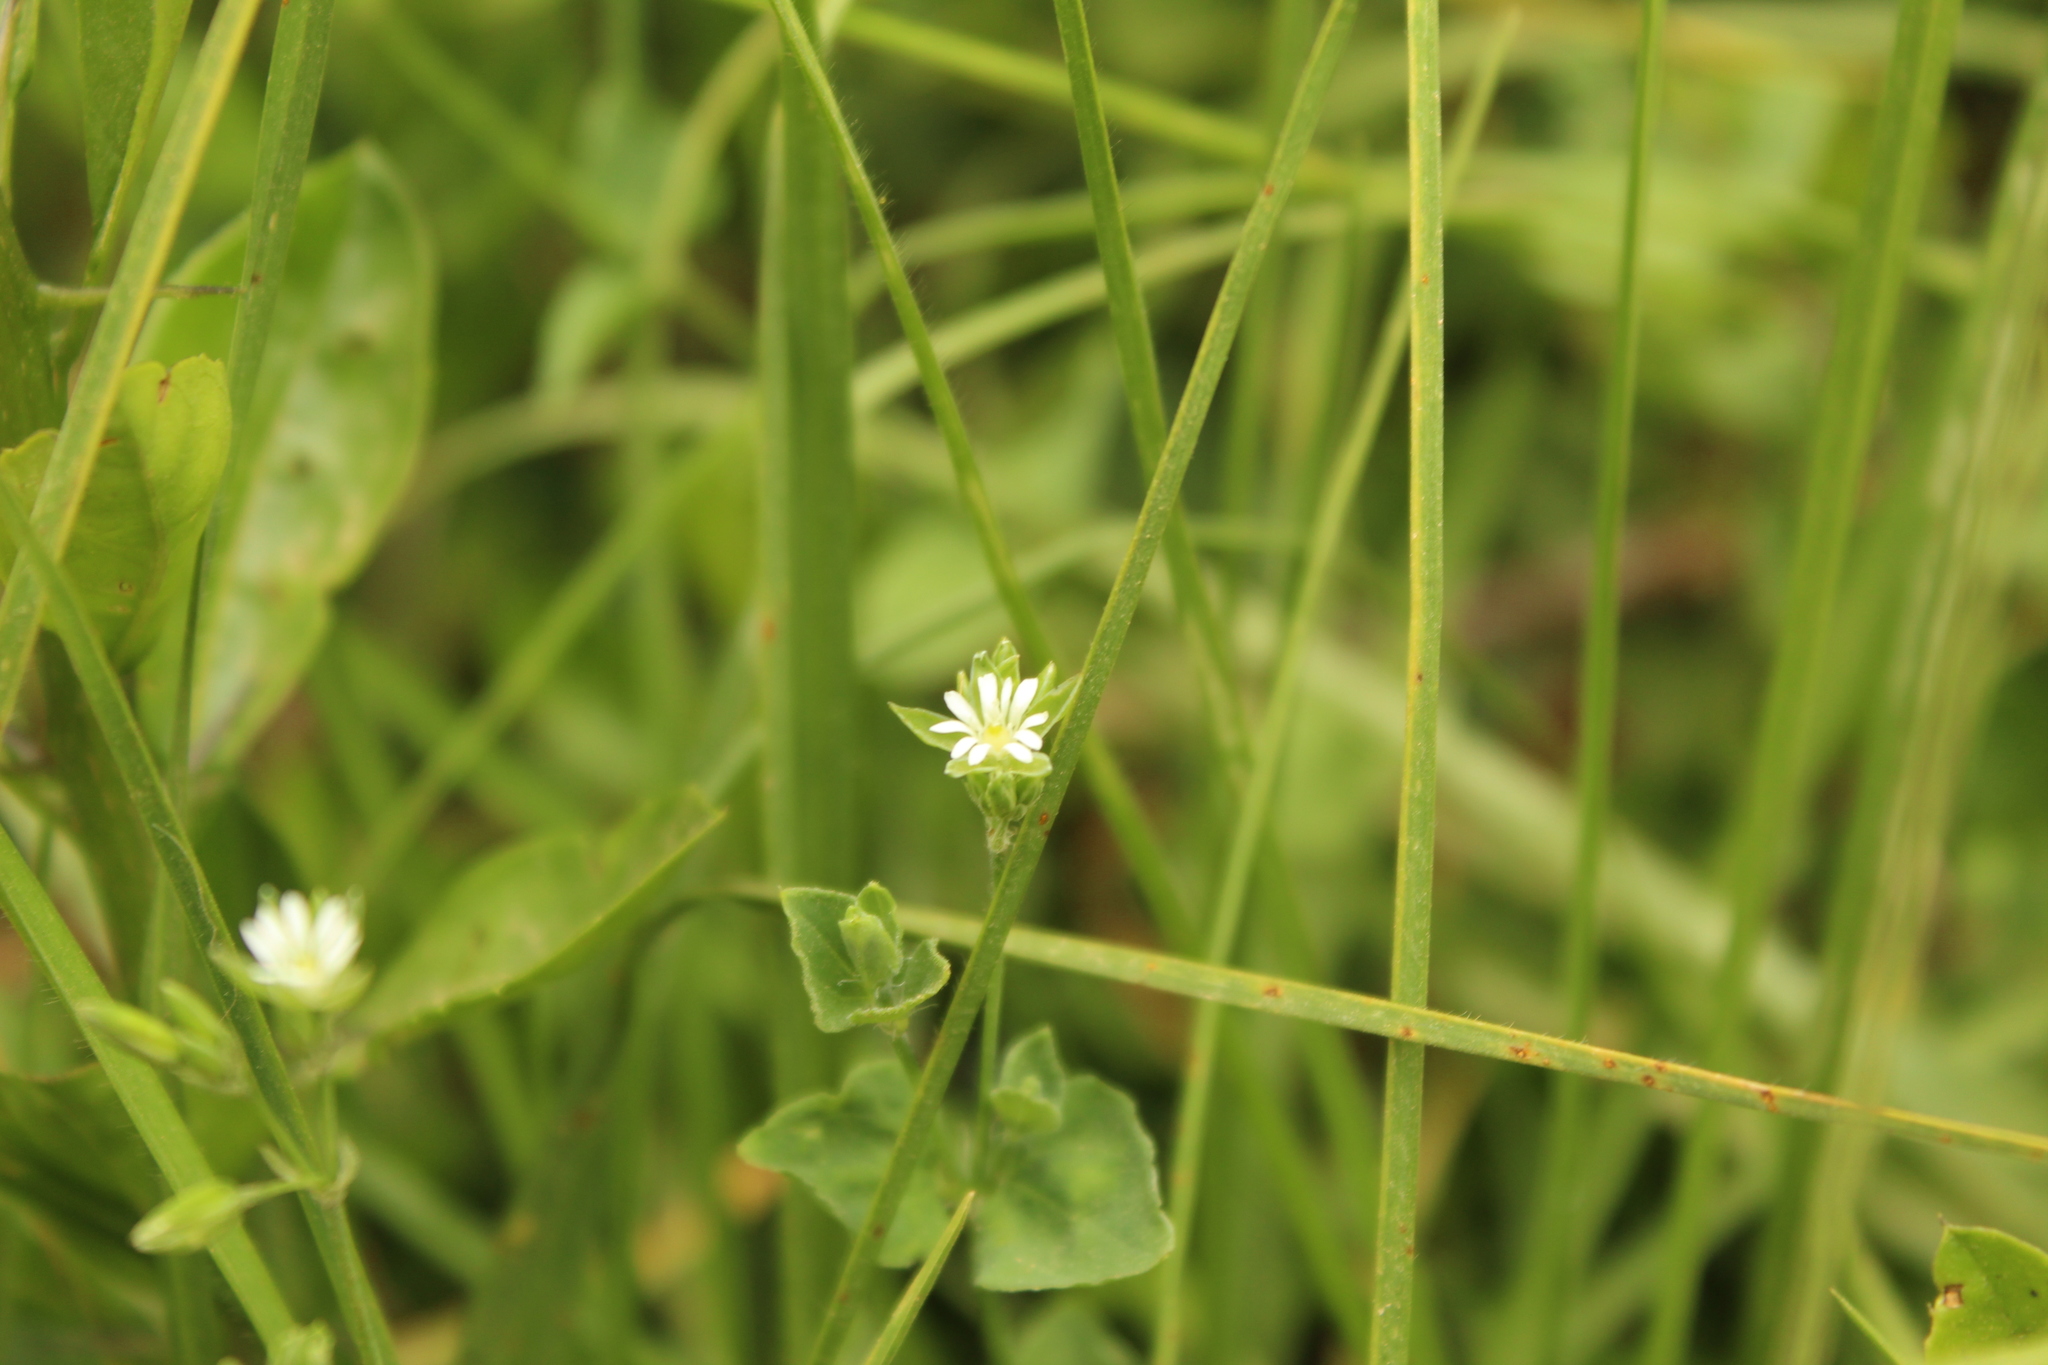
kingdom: Plantae
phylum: Tracheophyta
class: Magnoliopsida
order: Caryophyllales
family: Caryophyllaceae
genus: Drymaria
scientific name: Drymaria cordata
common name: Whitesnow
